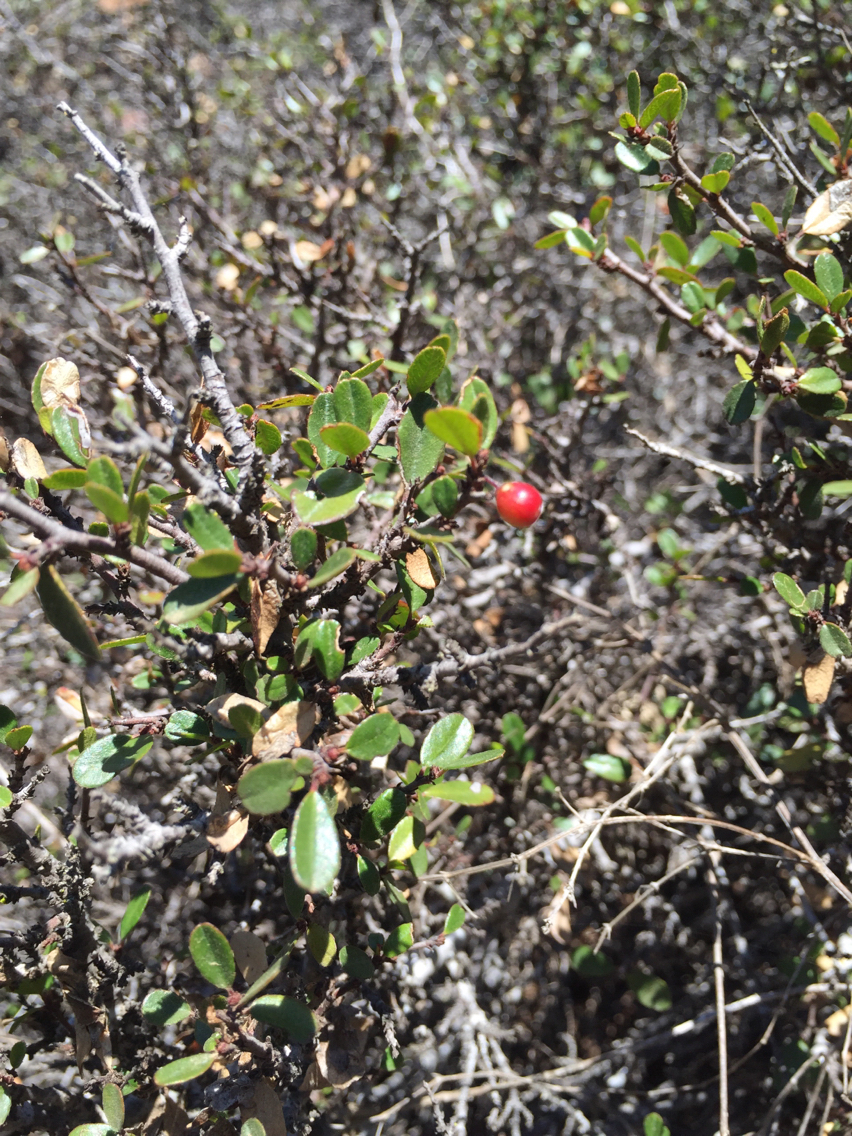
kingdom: Plantae
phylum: Tracheophyta
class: Magnoliopsida
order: Rosales
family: Rhamnaceae
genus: Endotropis
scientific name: Endotropis crocea
